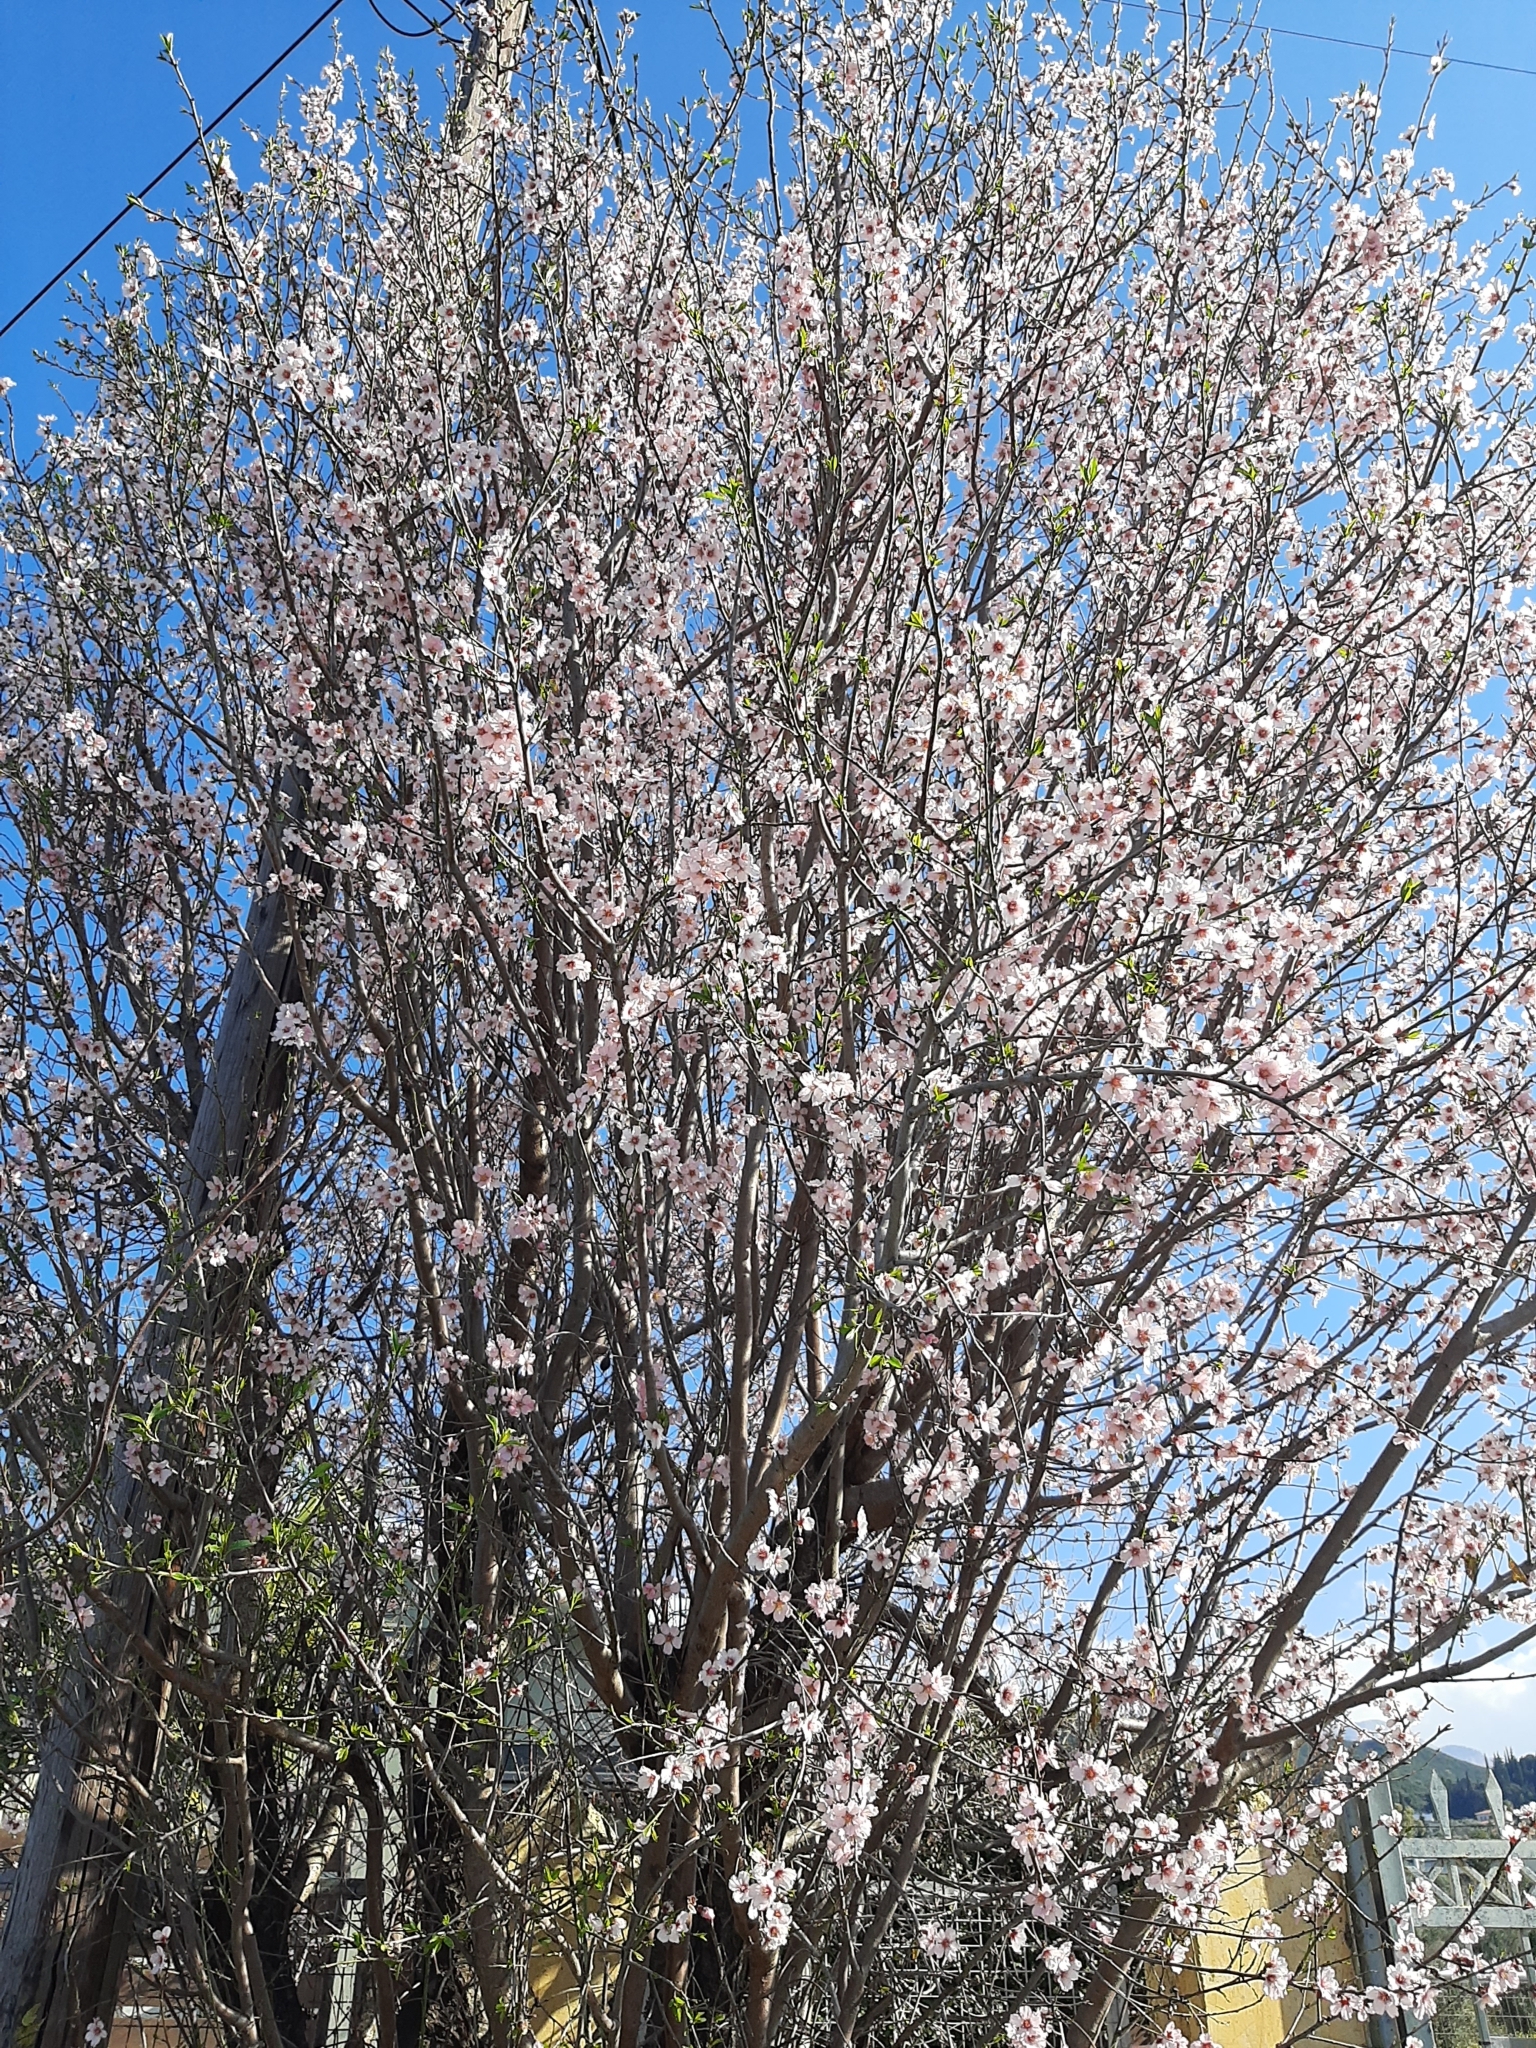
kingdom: Plantae
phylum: Tracheophyta
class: Magnoliopsida
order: Rosales
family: Rosaceae
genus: Prunus
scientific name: Prunus amygdalus
